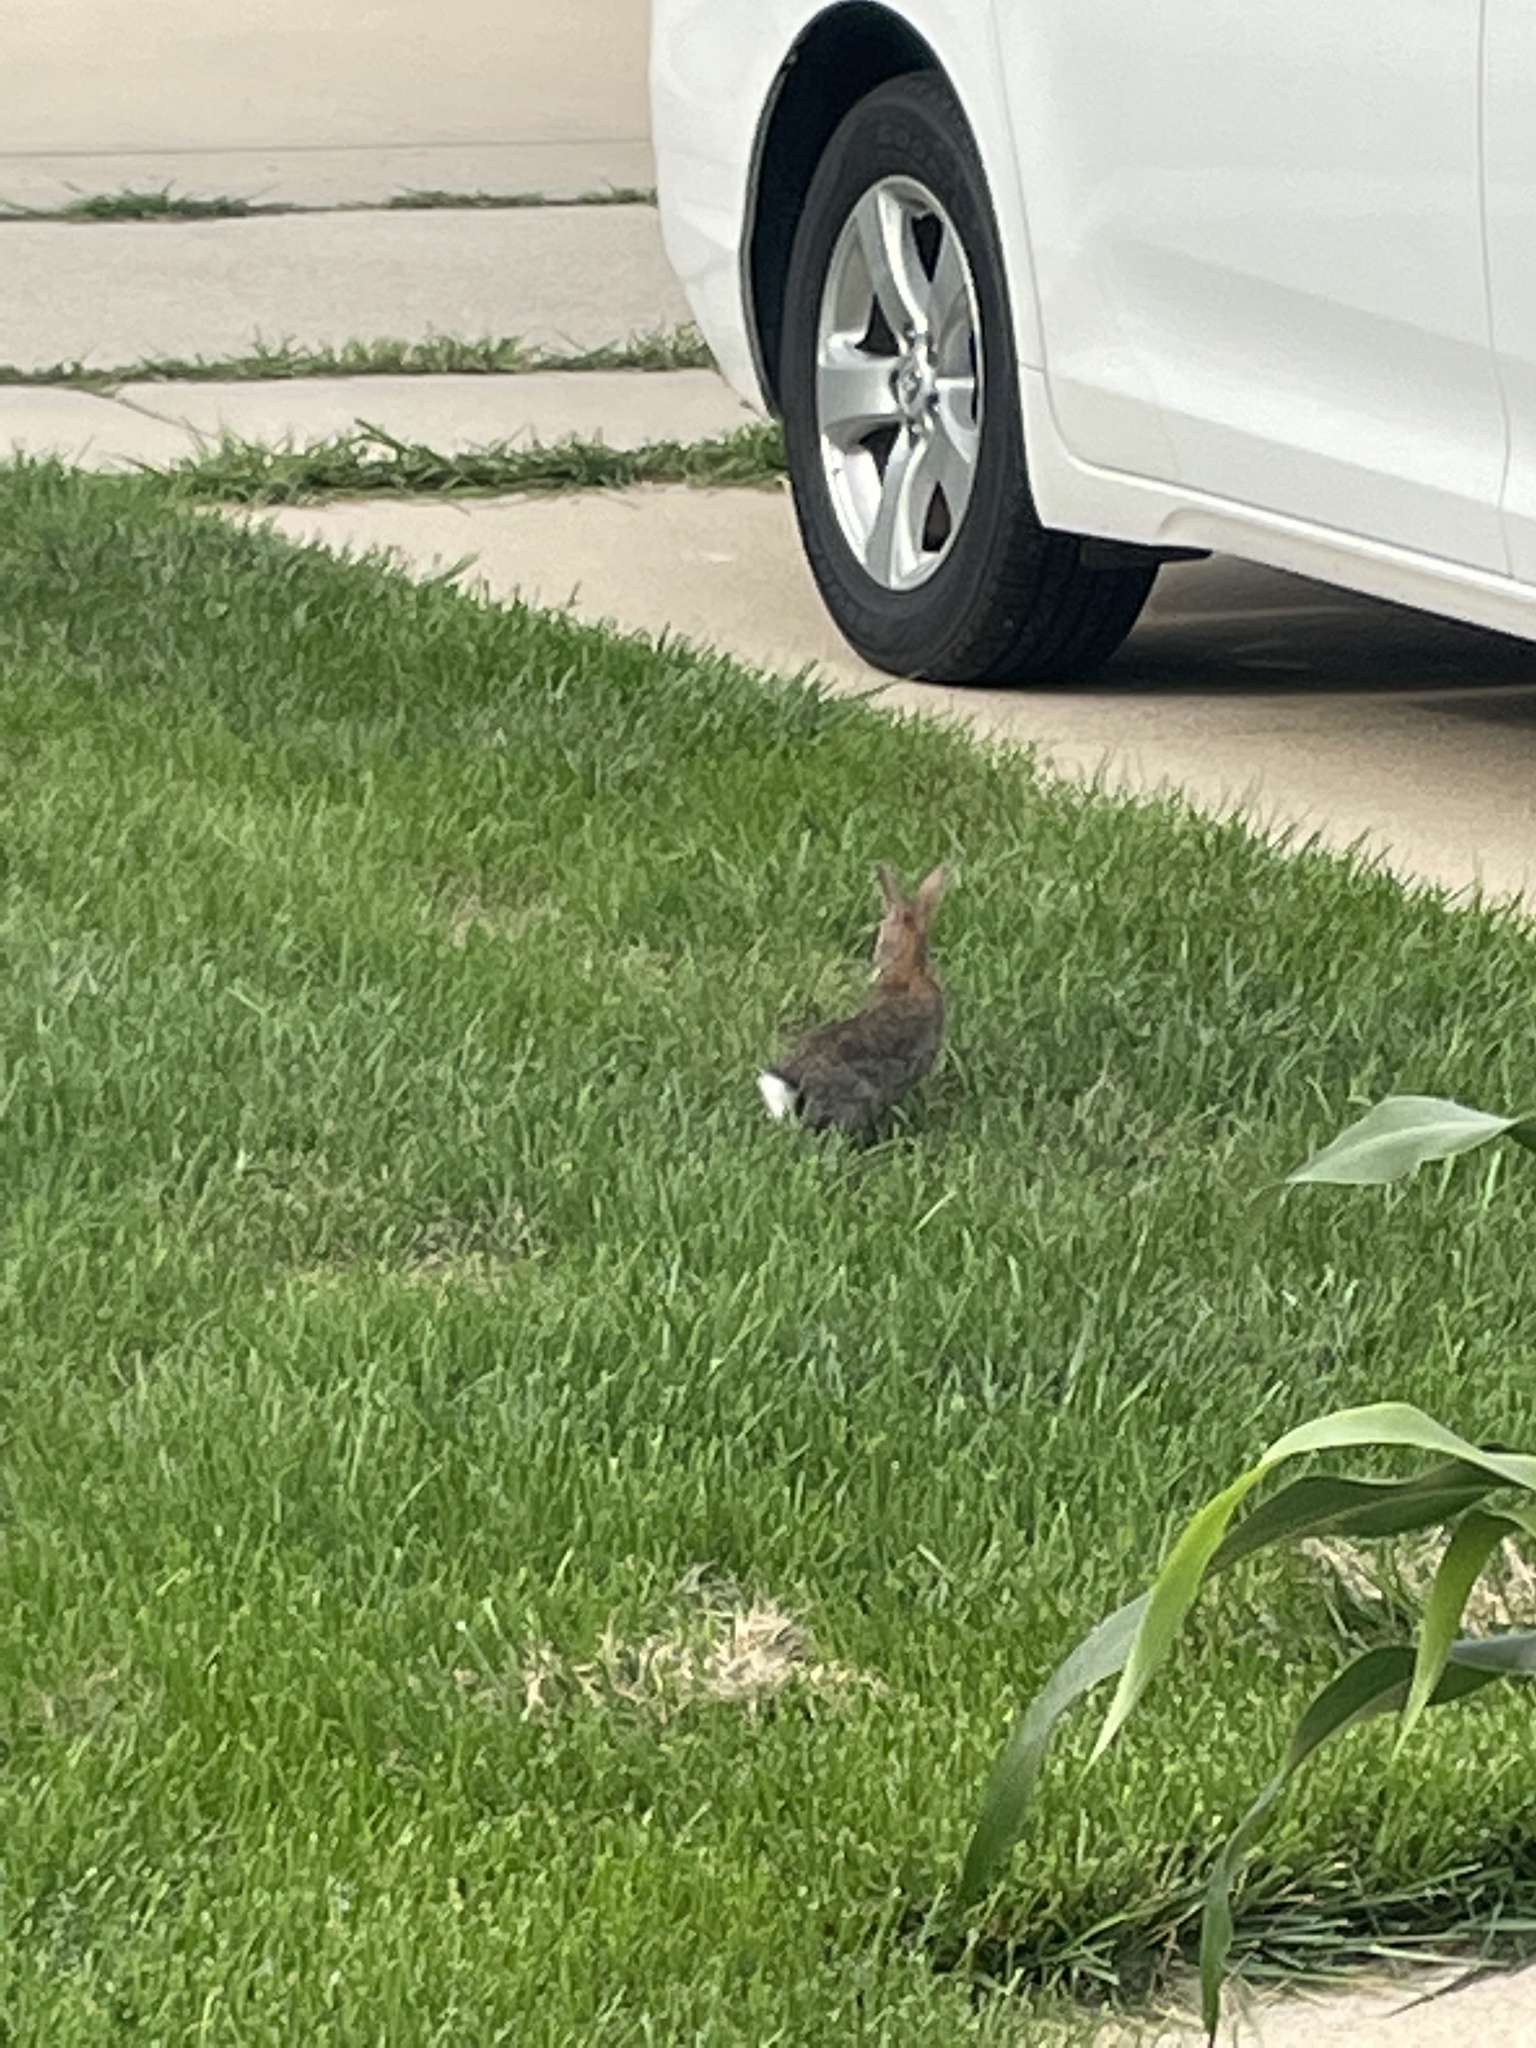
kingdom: Animalia
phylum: Chordata
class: Mammalia
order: Lagomorpha
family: Leporidae
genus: Sylvilagus
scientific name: Sylvilagus floridanus
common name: Eastern cottontail
